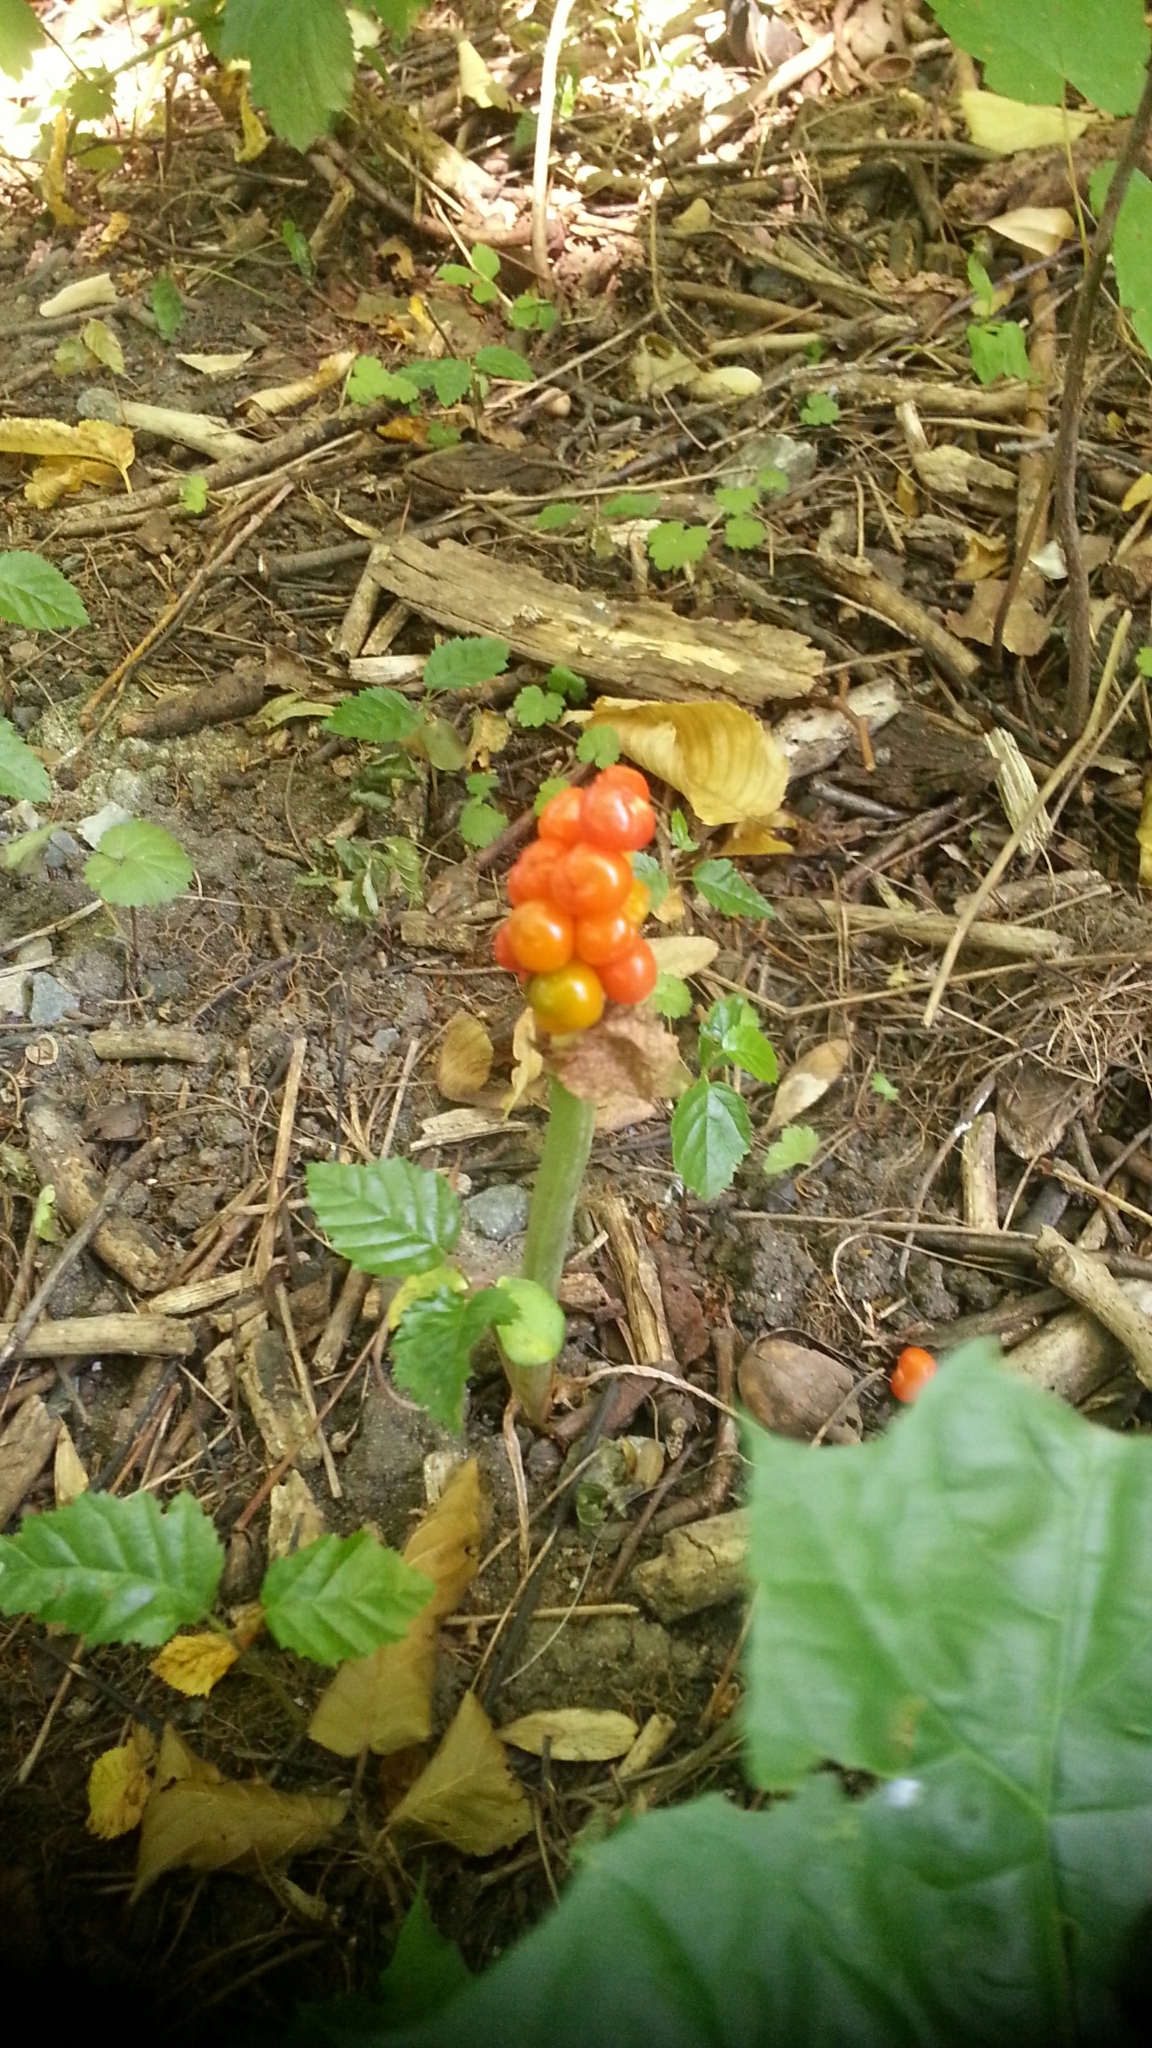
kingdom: Plantae
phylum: Tracheophyta
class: Liliopsida
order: Alismatales
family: Araceae
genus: Arum
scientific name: Arum
